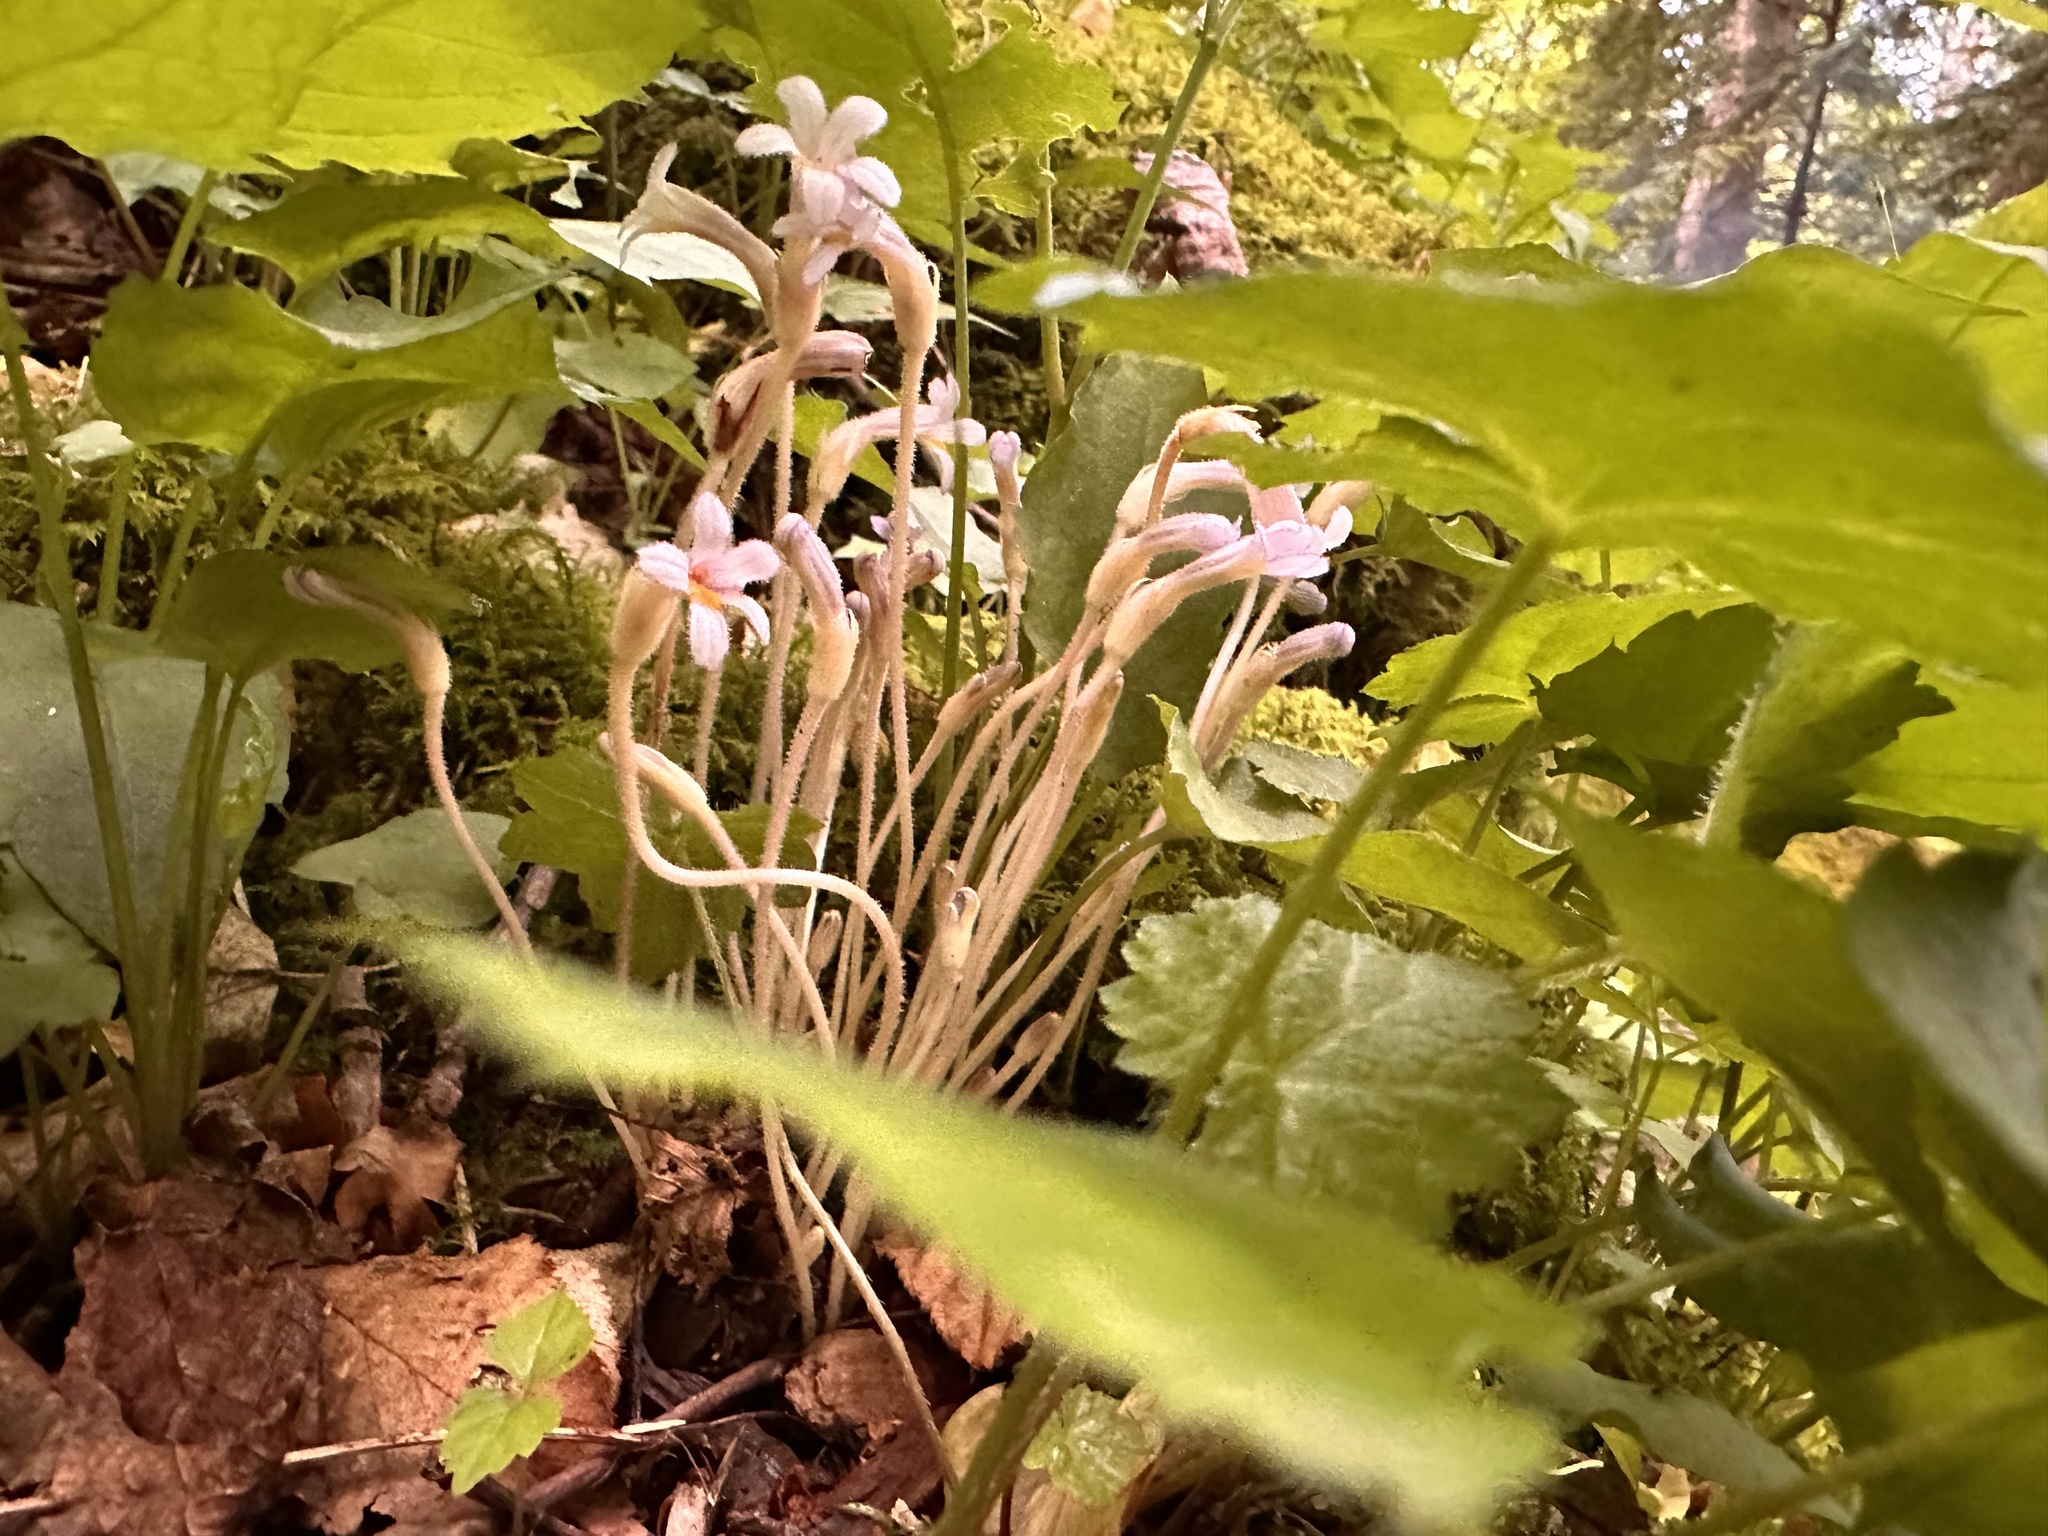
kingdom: Plantae
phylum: Tracheophyta
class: Magnoliopsida
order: Lamiales
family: Orobanchaceae
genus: Aphyllon
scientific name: Aphyllon uniflorum
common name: One-flowered broomrape
